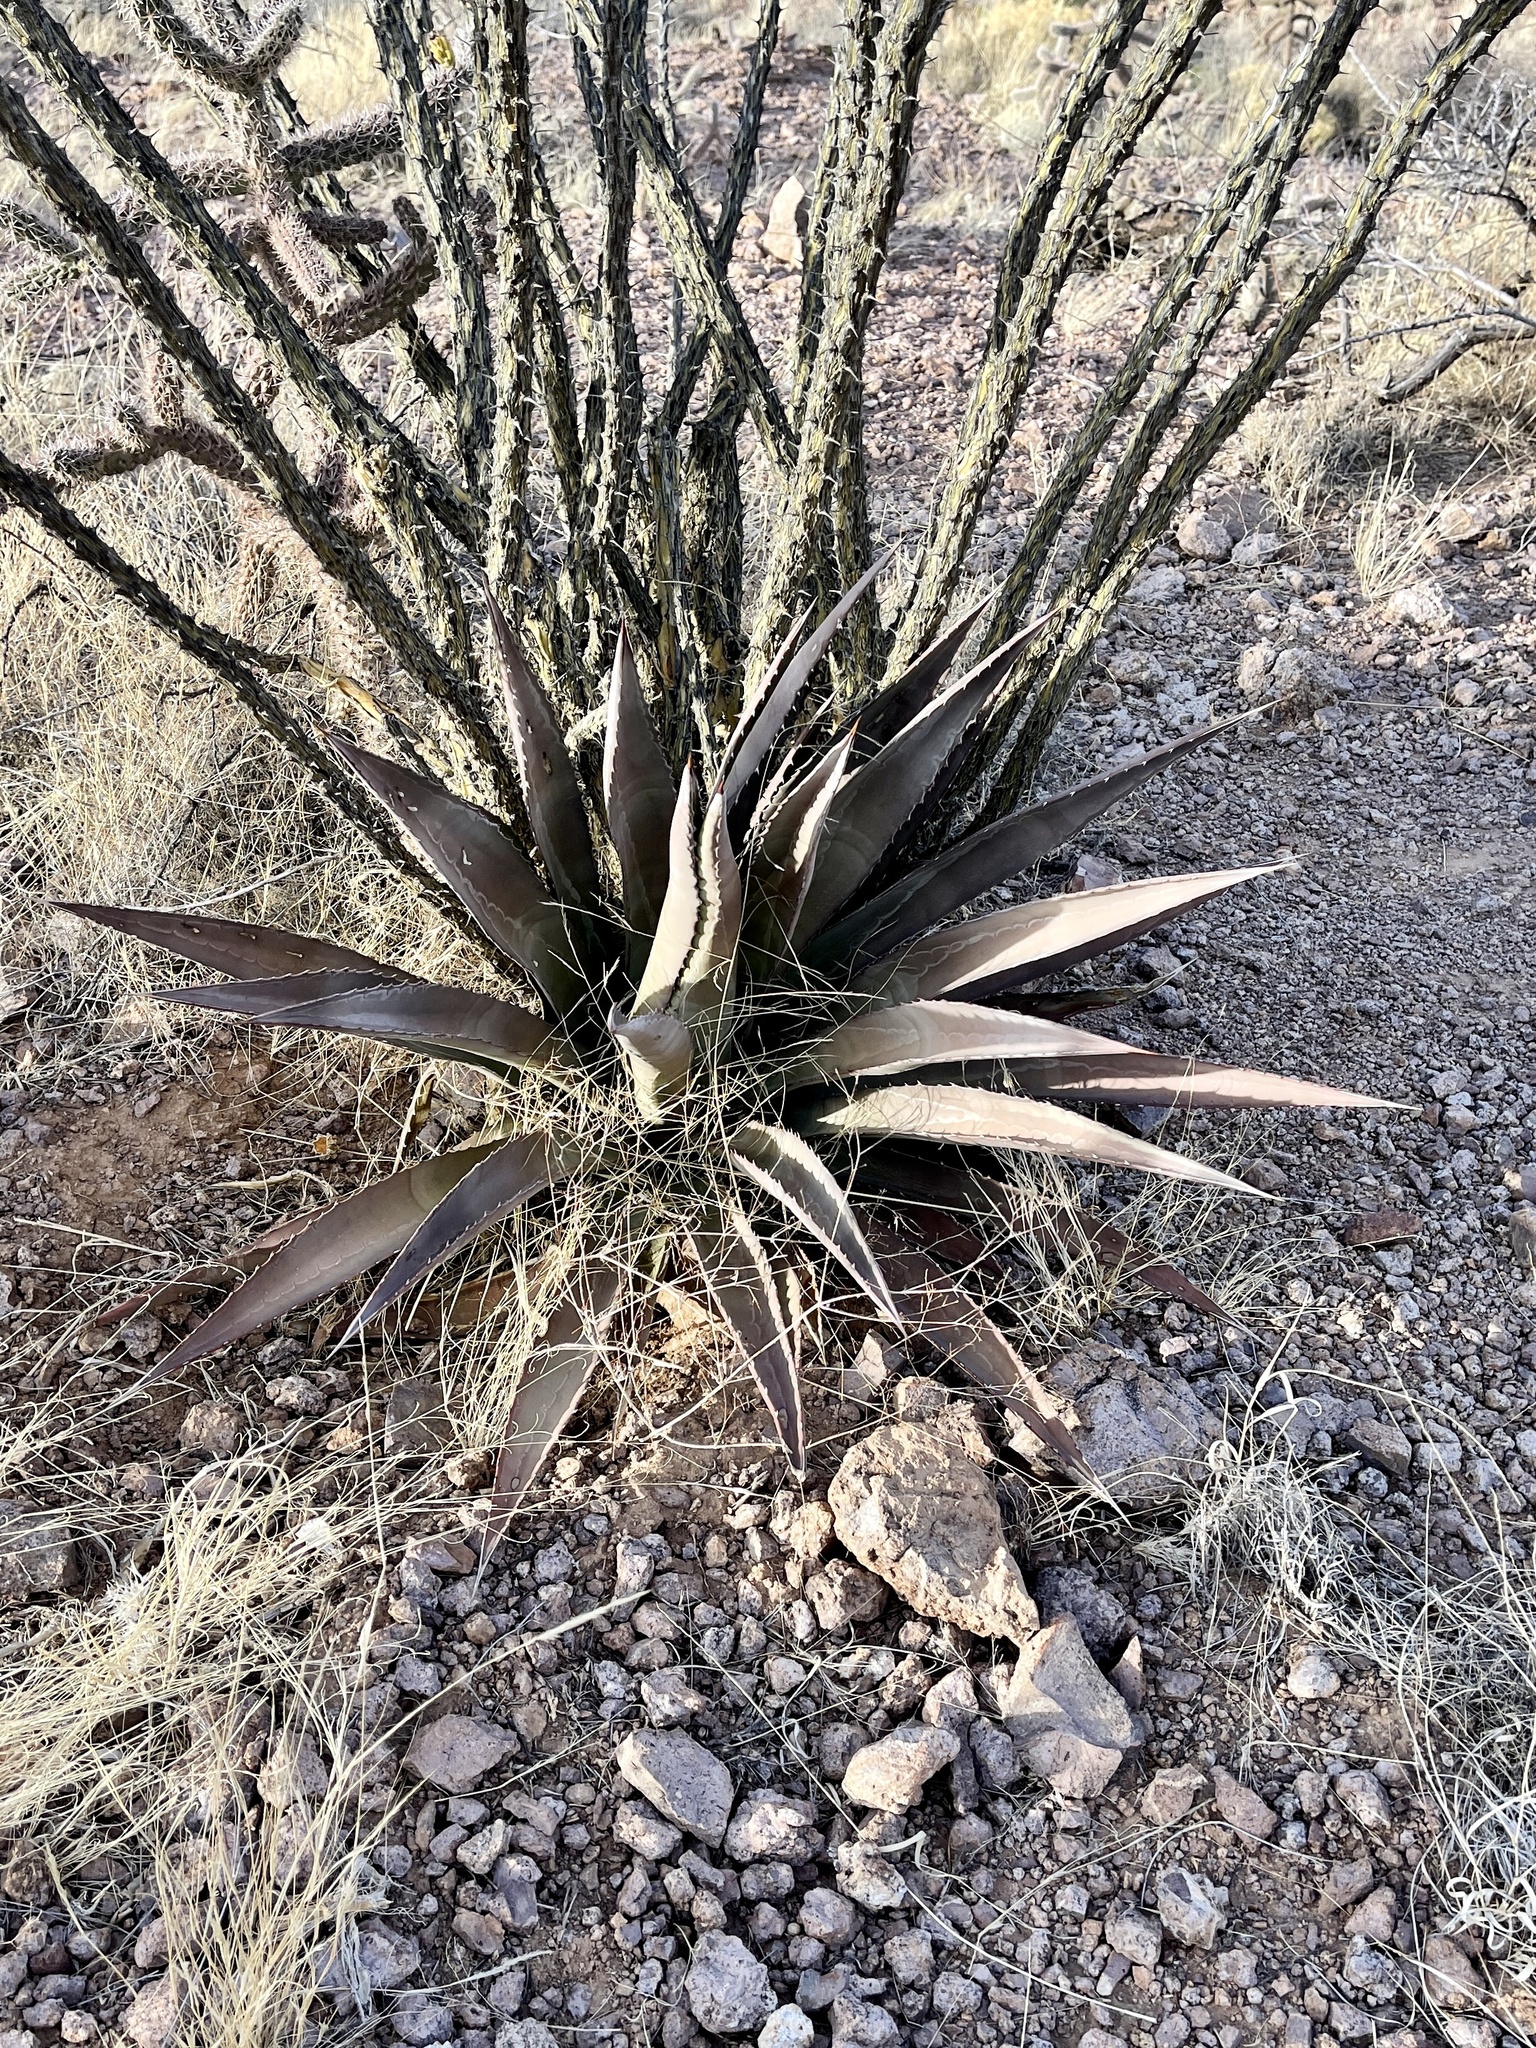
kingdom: Plantae
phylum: Tracheophyta
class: Liliopsida
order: Asparagales
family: Asparagaceae
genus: Agave
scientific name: Agave palmeri
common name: Palmer agave
